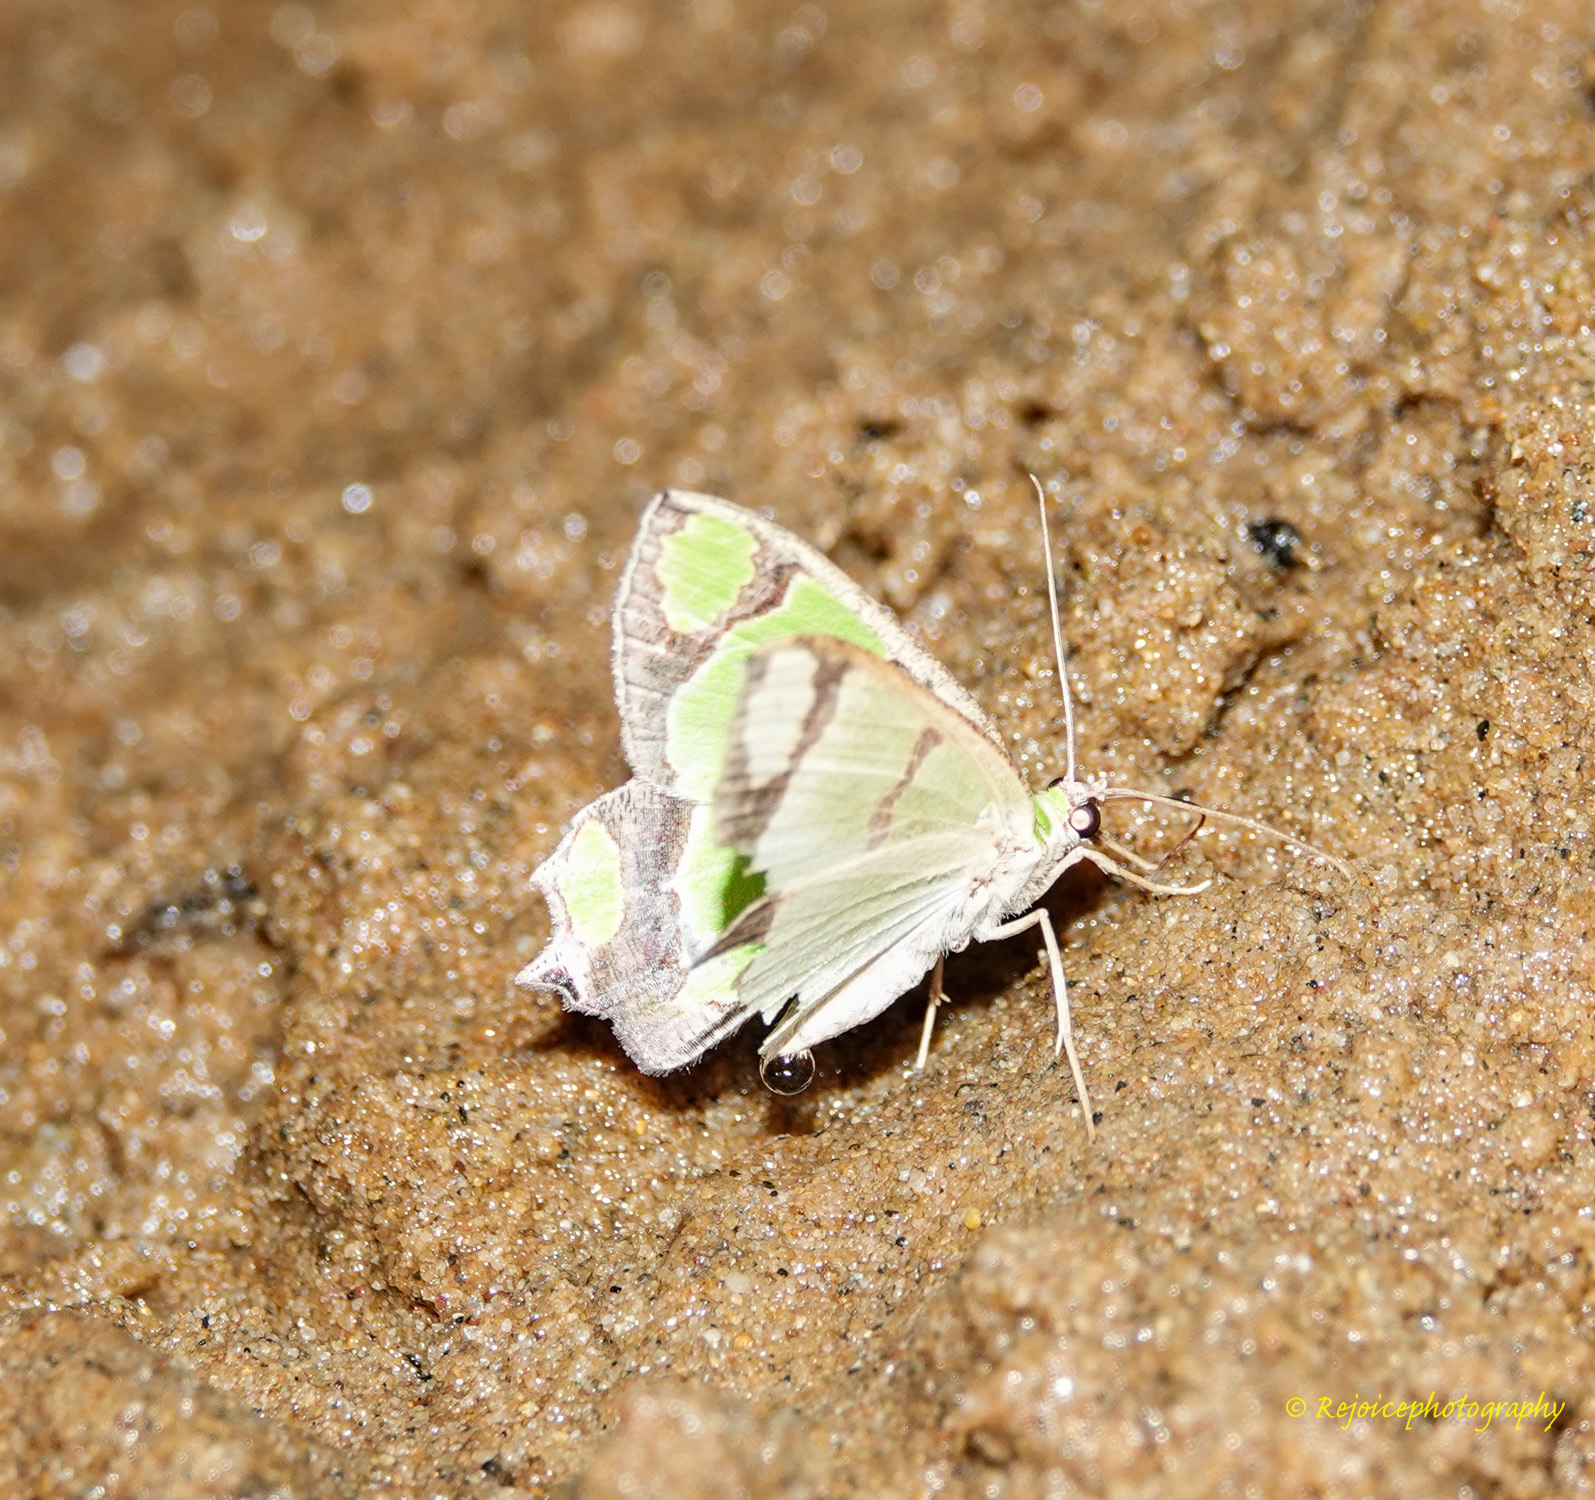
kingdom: Animalia
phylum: Arthropoda
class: Insecta
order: Lepidoptera
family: Geometridae
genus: Agathia
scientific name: Agathia hilarata
